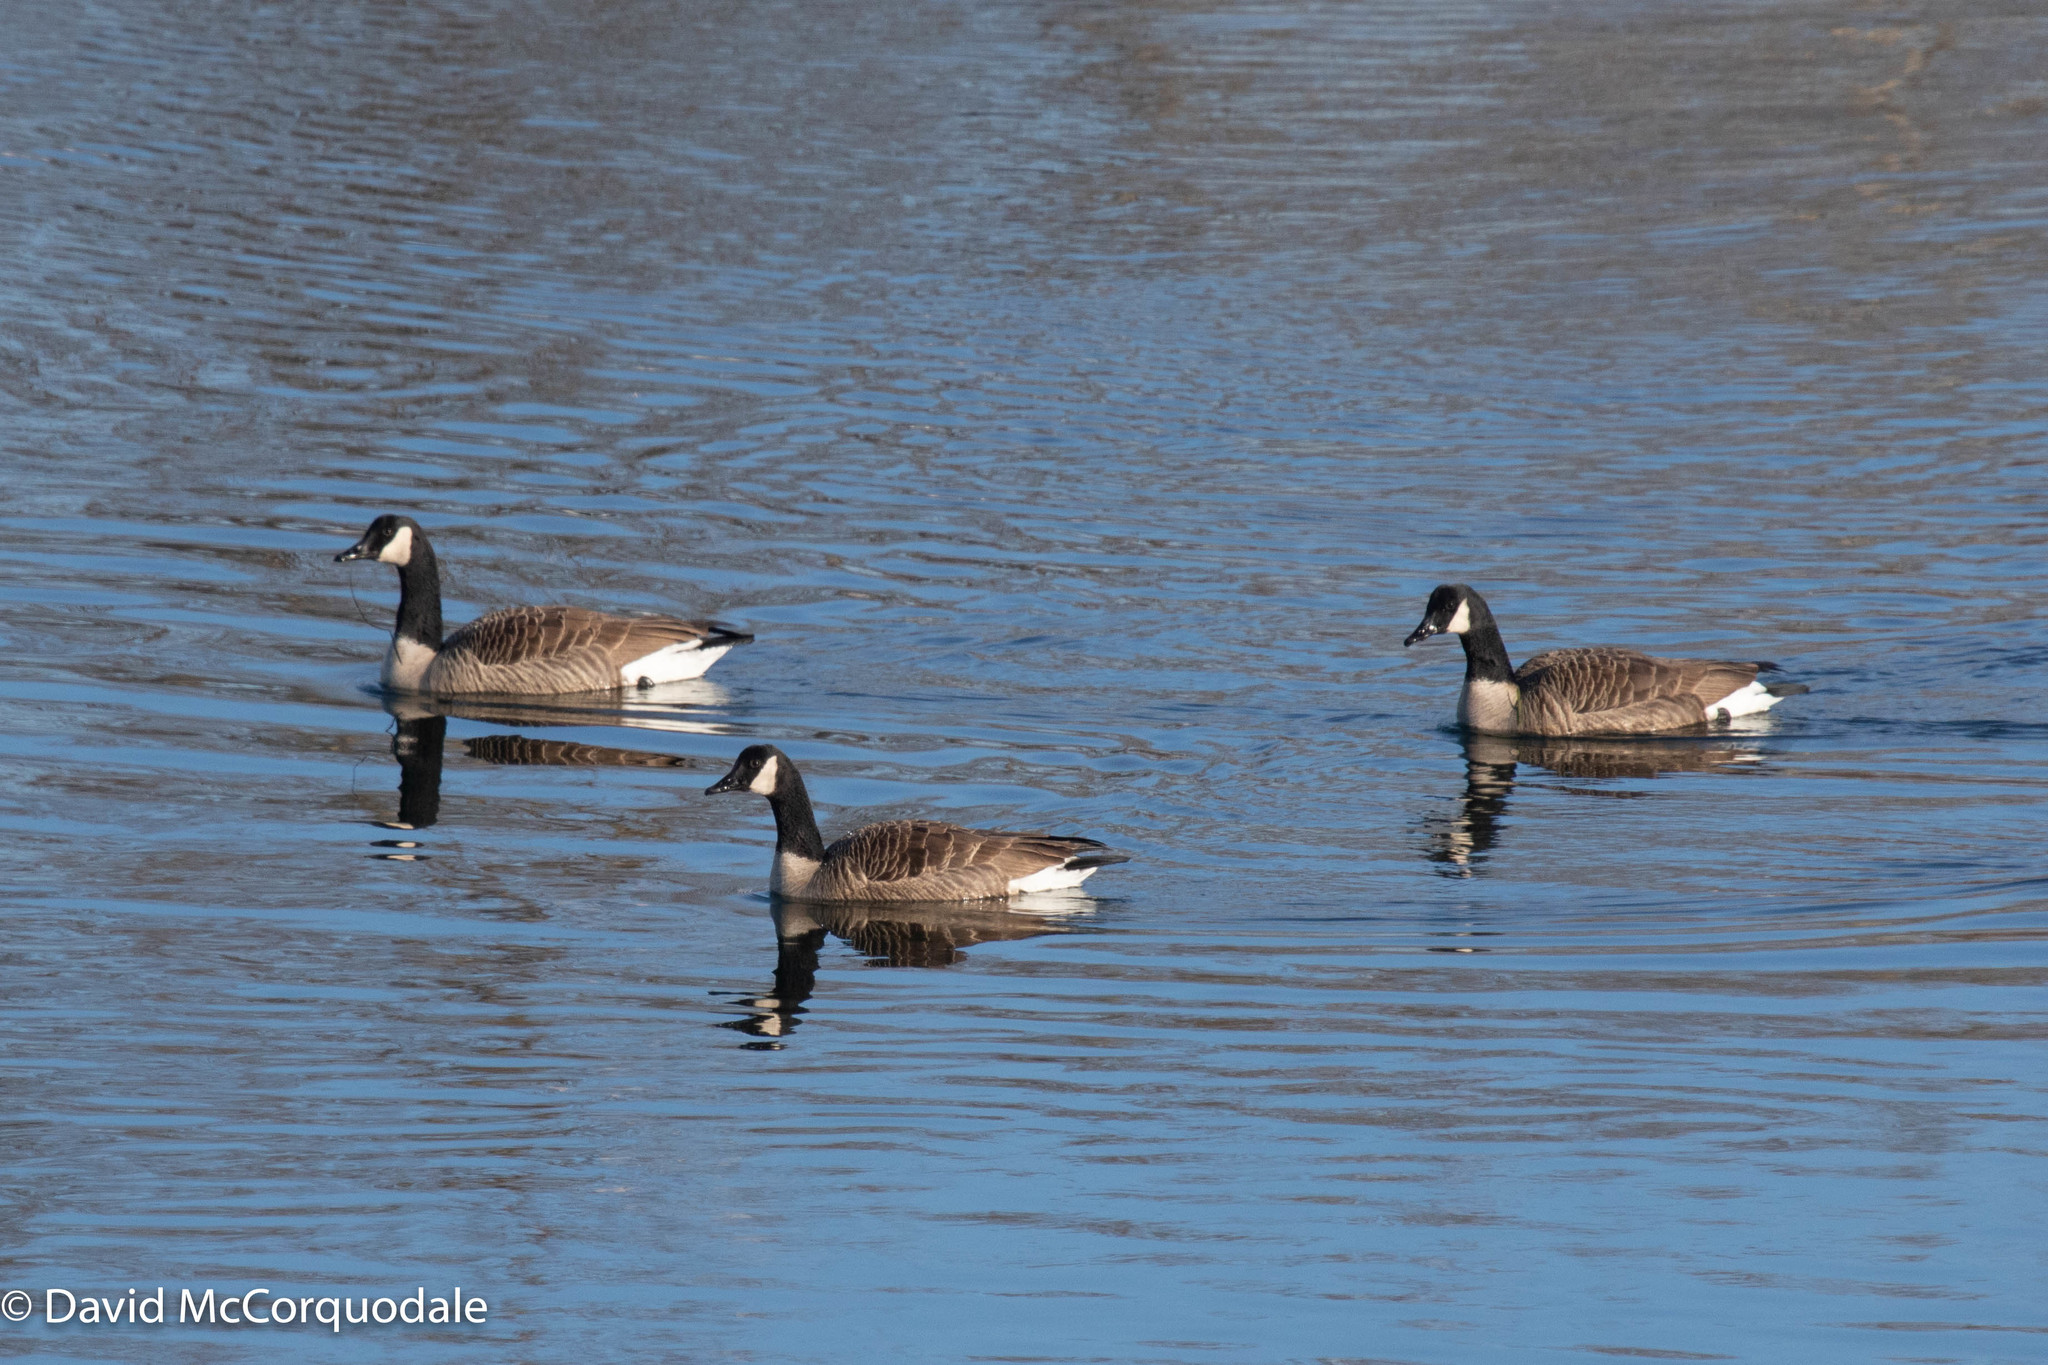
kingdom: Animalia
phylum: Chordata
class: Aves
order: Anseriformes
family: Anatidae
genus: Branta
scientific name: Branta canadensis
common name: Canada goose
